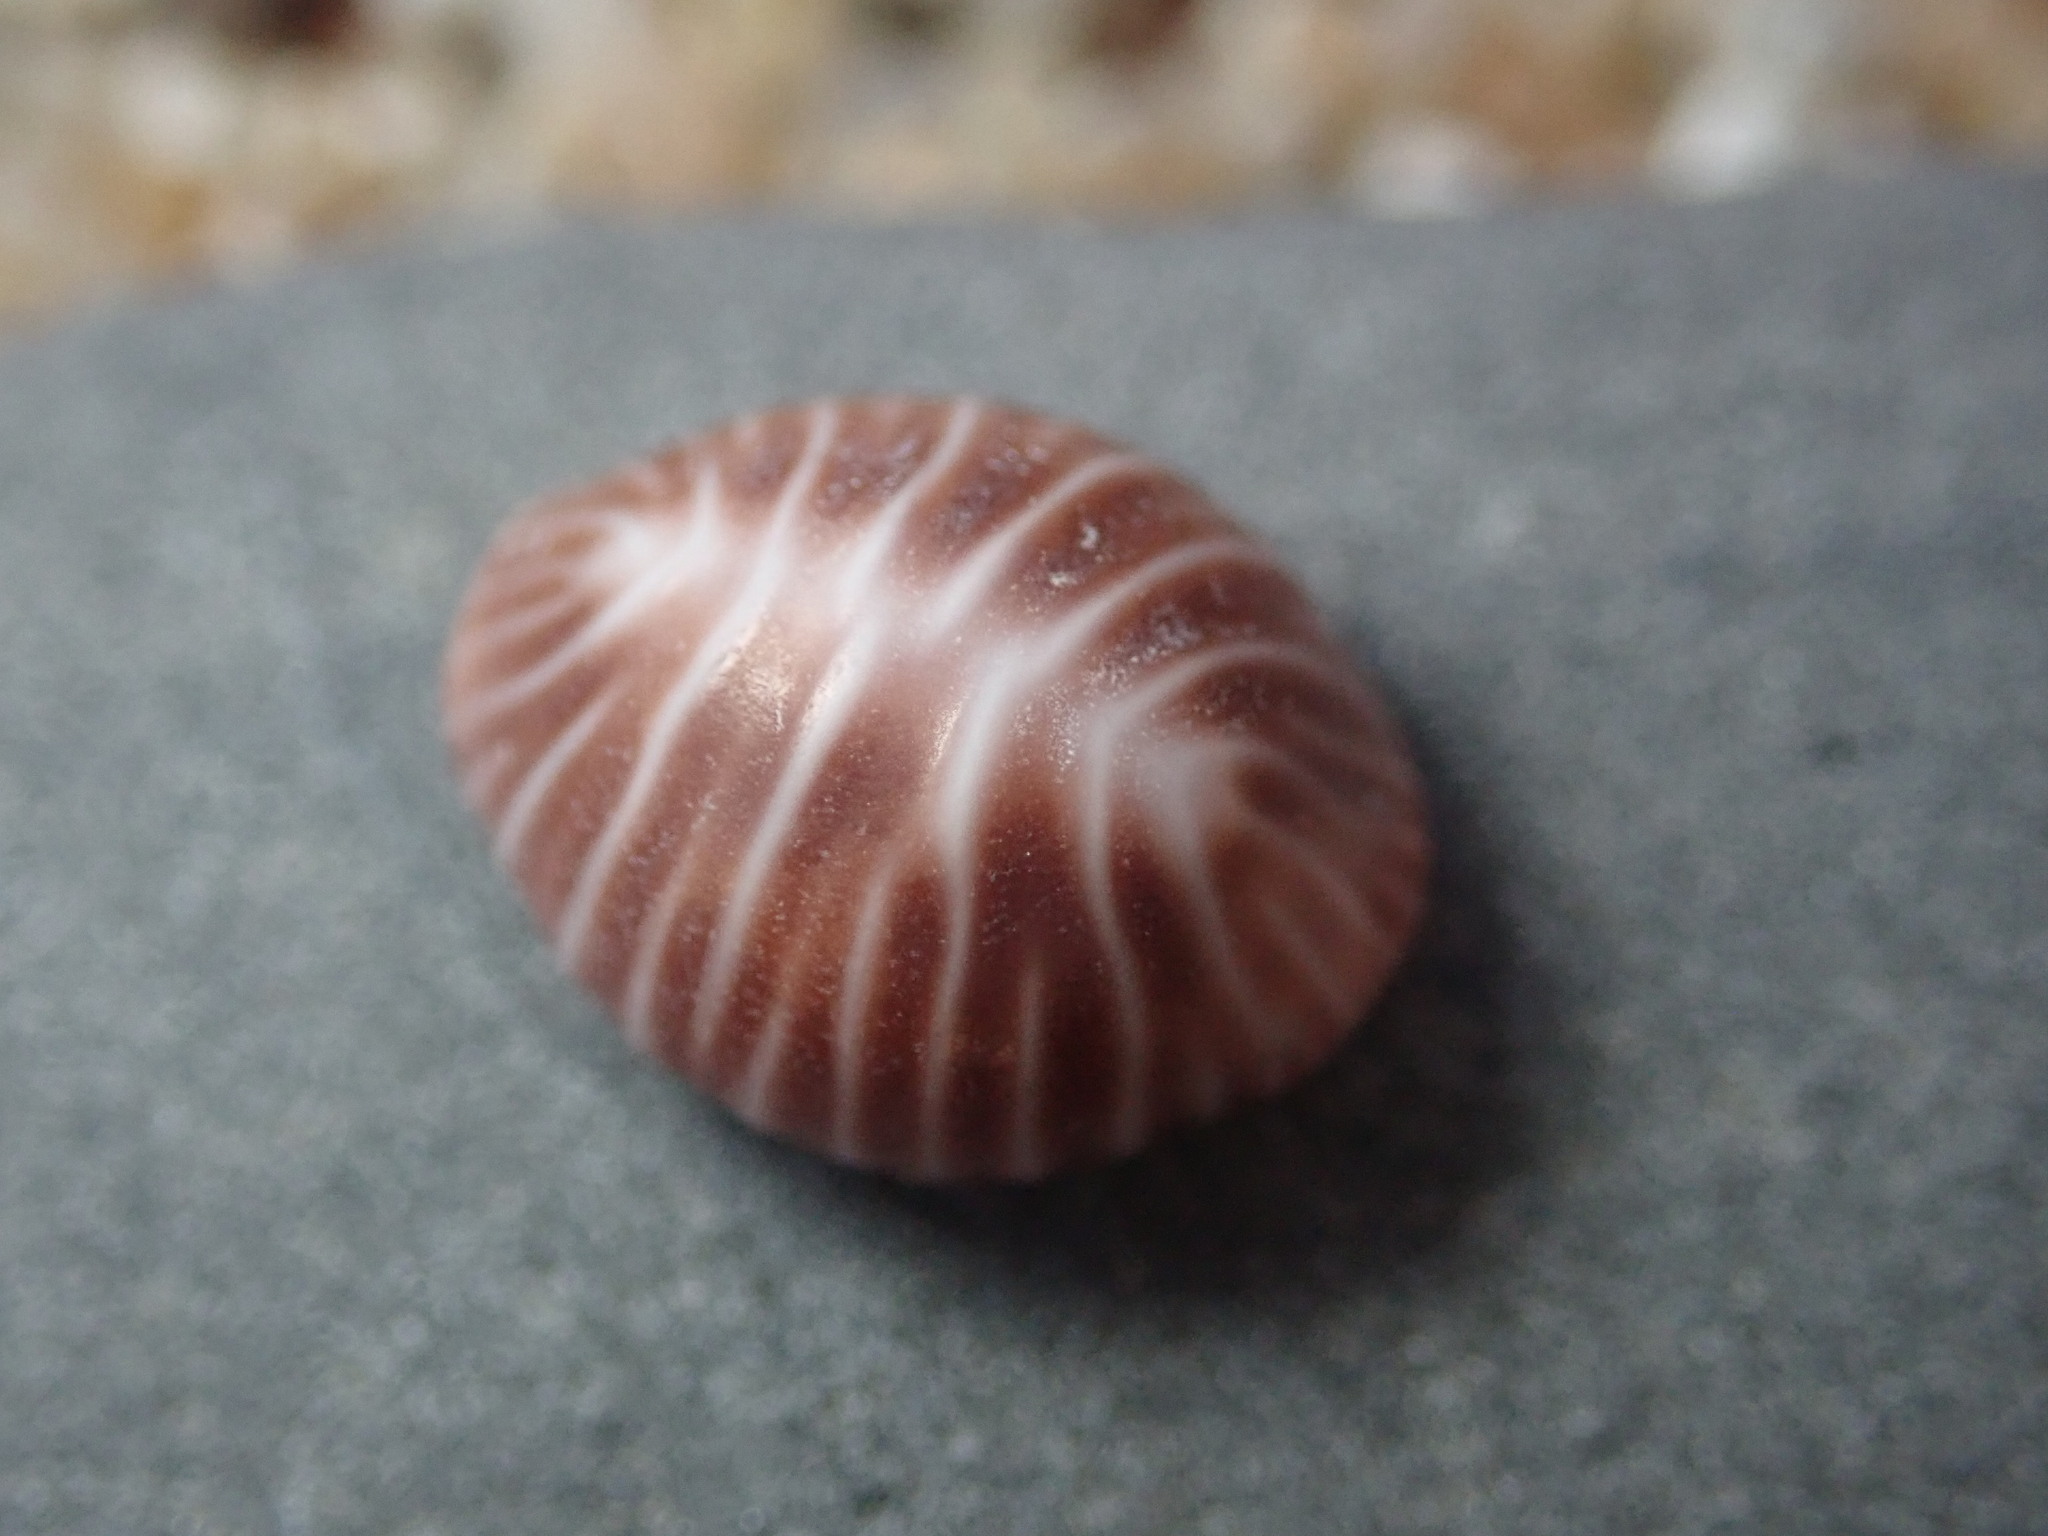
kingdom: Animalia
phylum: Mollusca
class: Gastropoda
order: Littorinimorpha
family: Triviidae
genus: Pseudopusula
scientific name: Pseudopusula californiana
